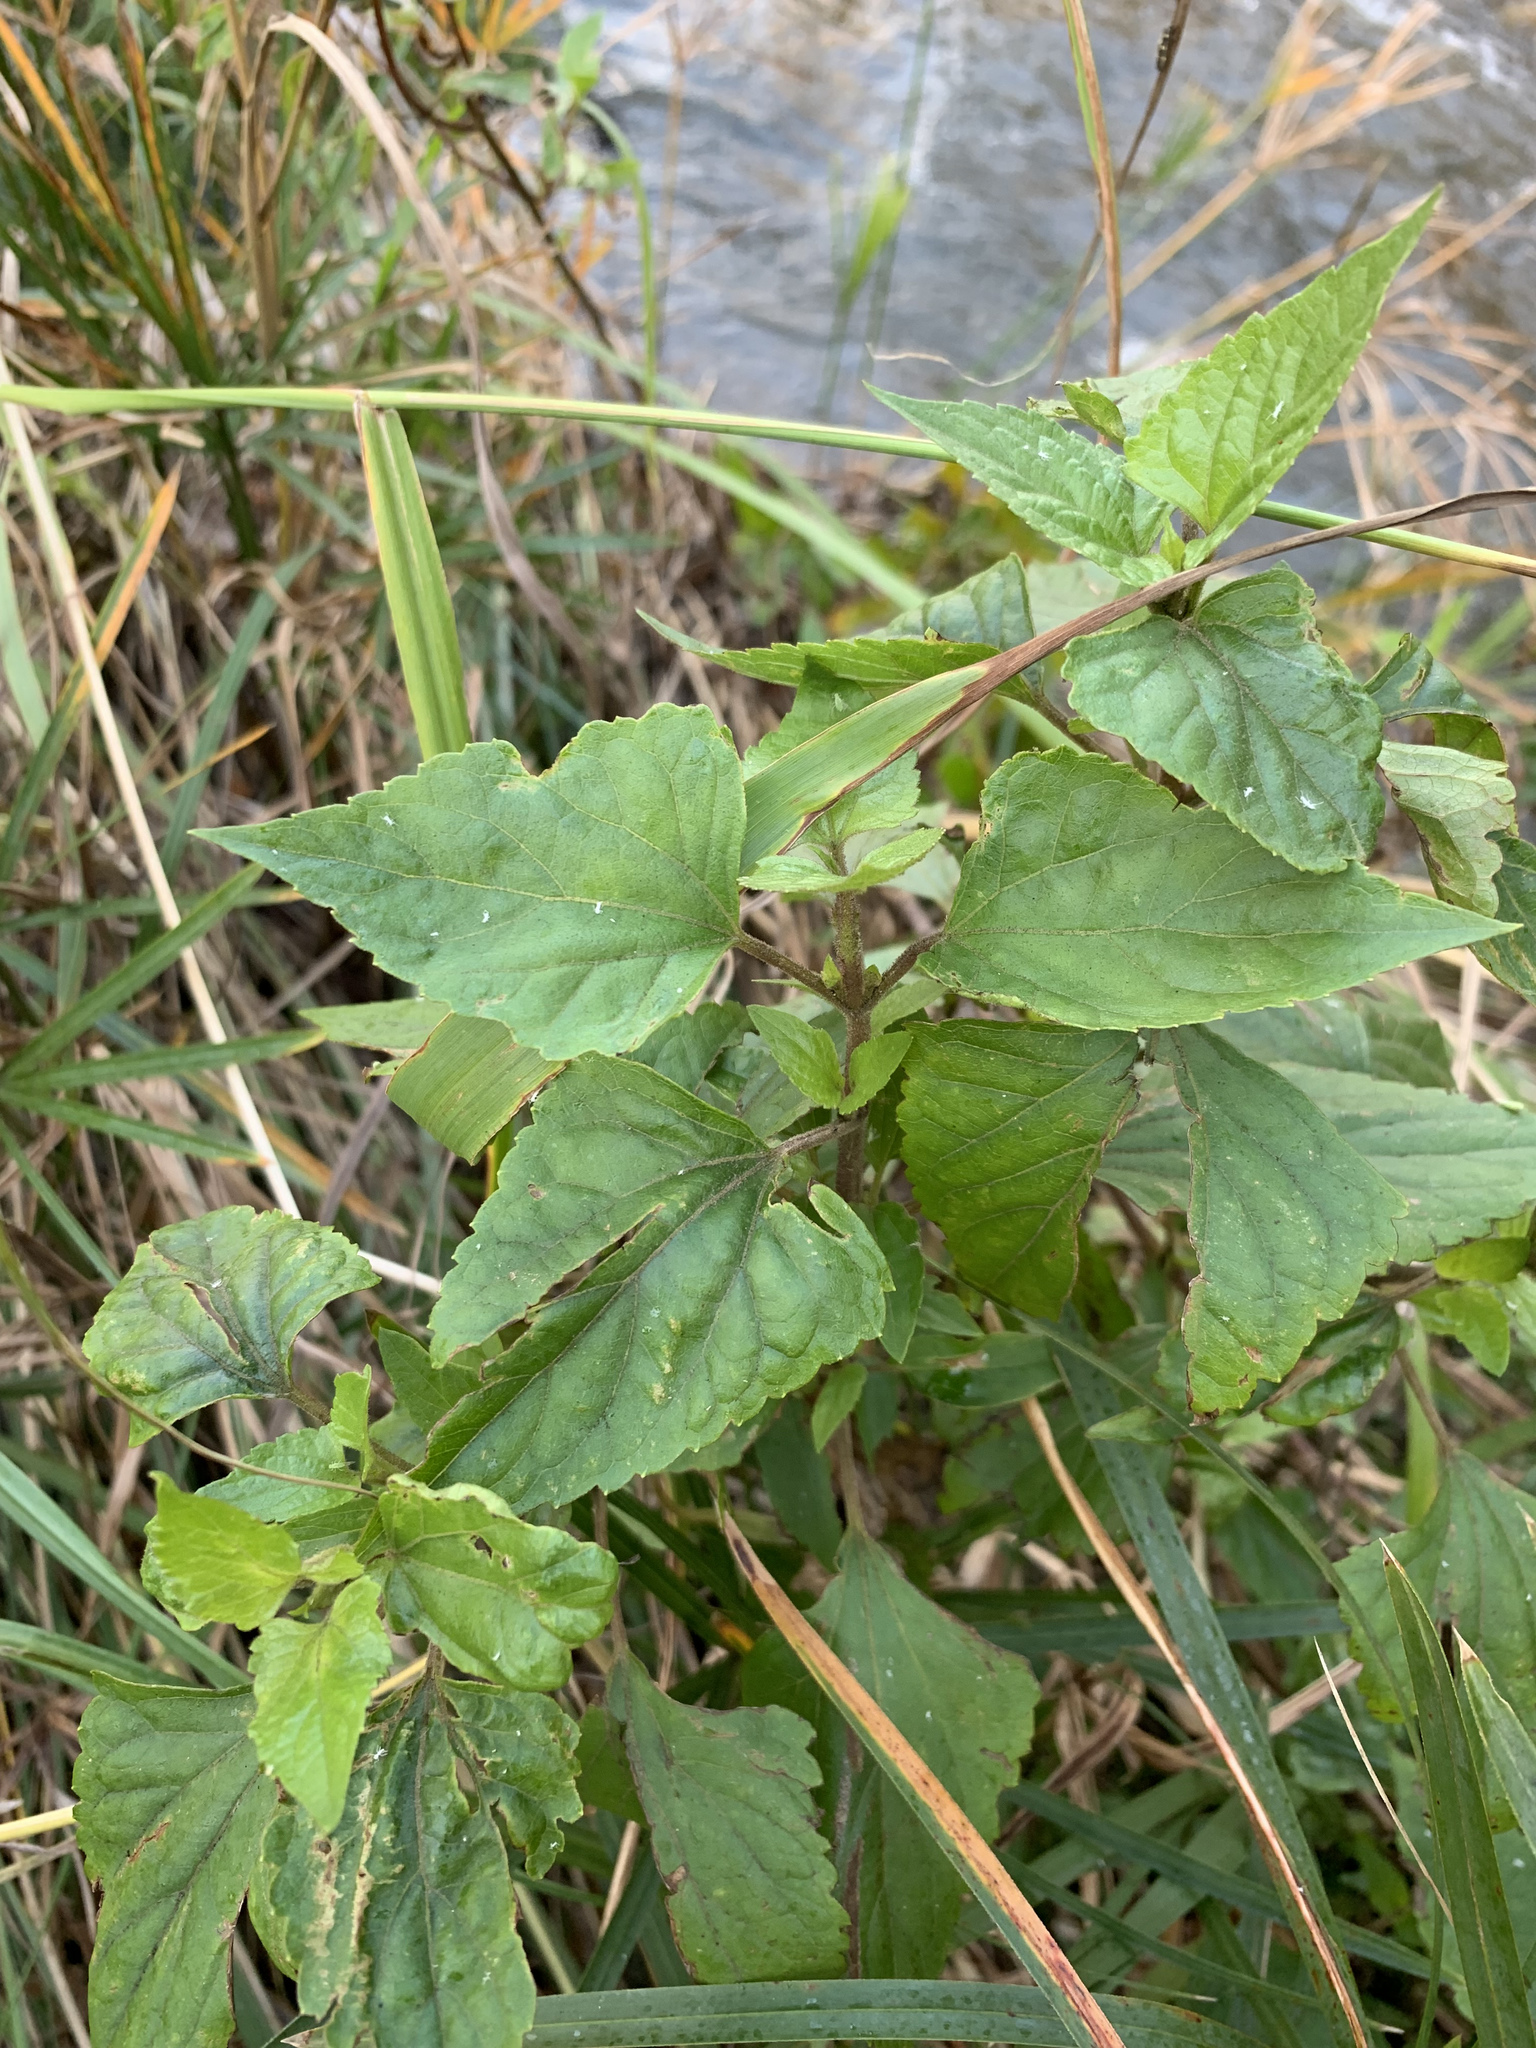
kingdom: Plantae
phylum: Tracheophyta
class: Magnoliopsida
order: Asterales
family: Asteraceae
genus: Ageratina
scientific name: Ageratina adenophora
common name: Sticky snakeroot
